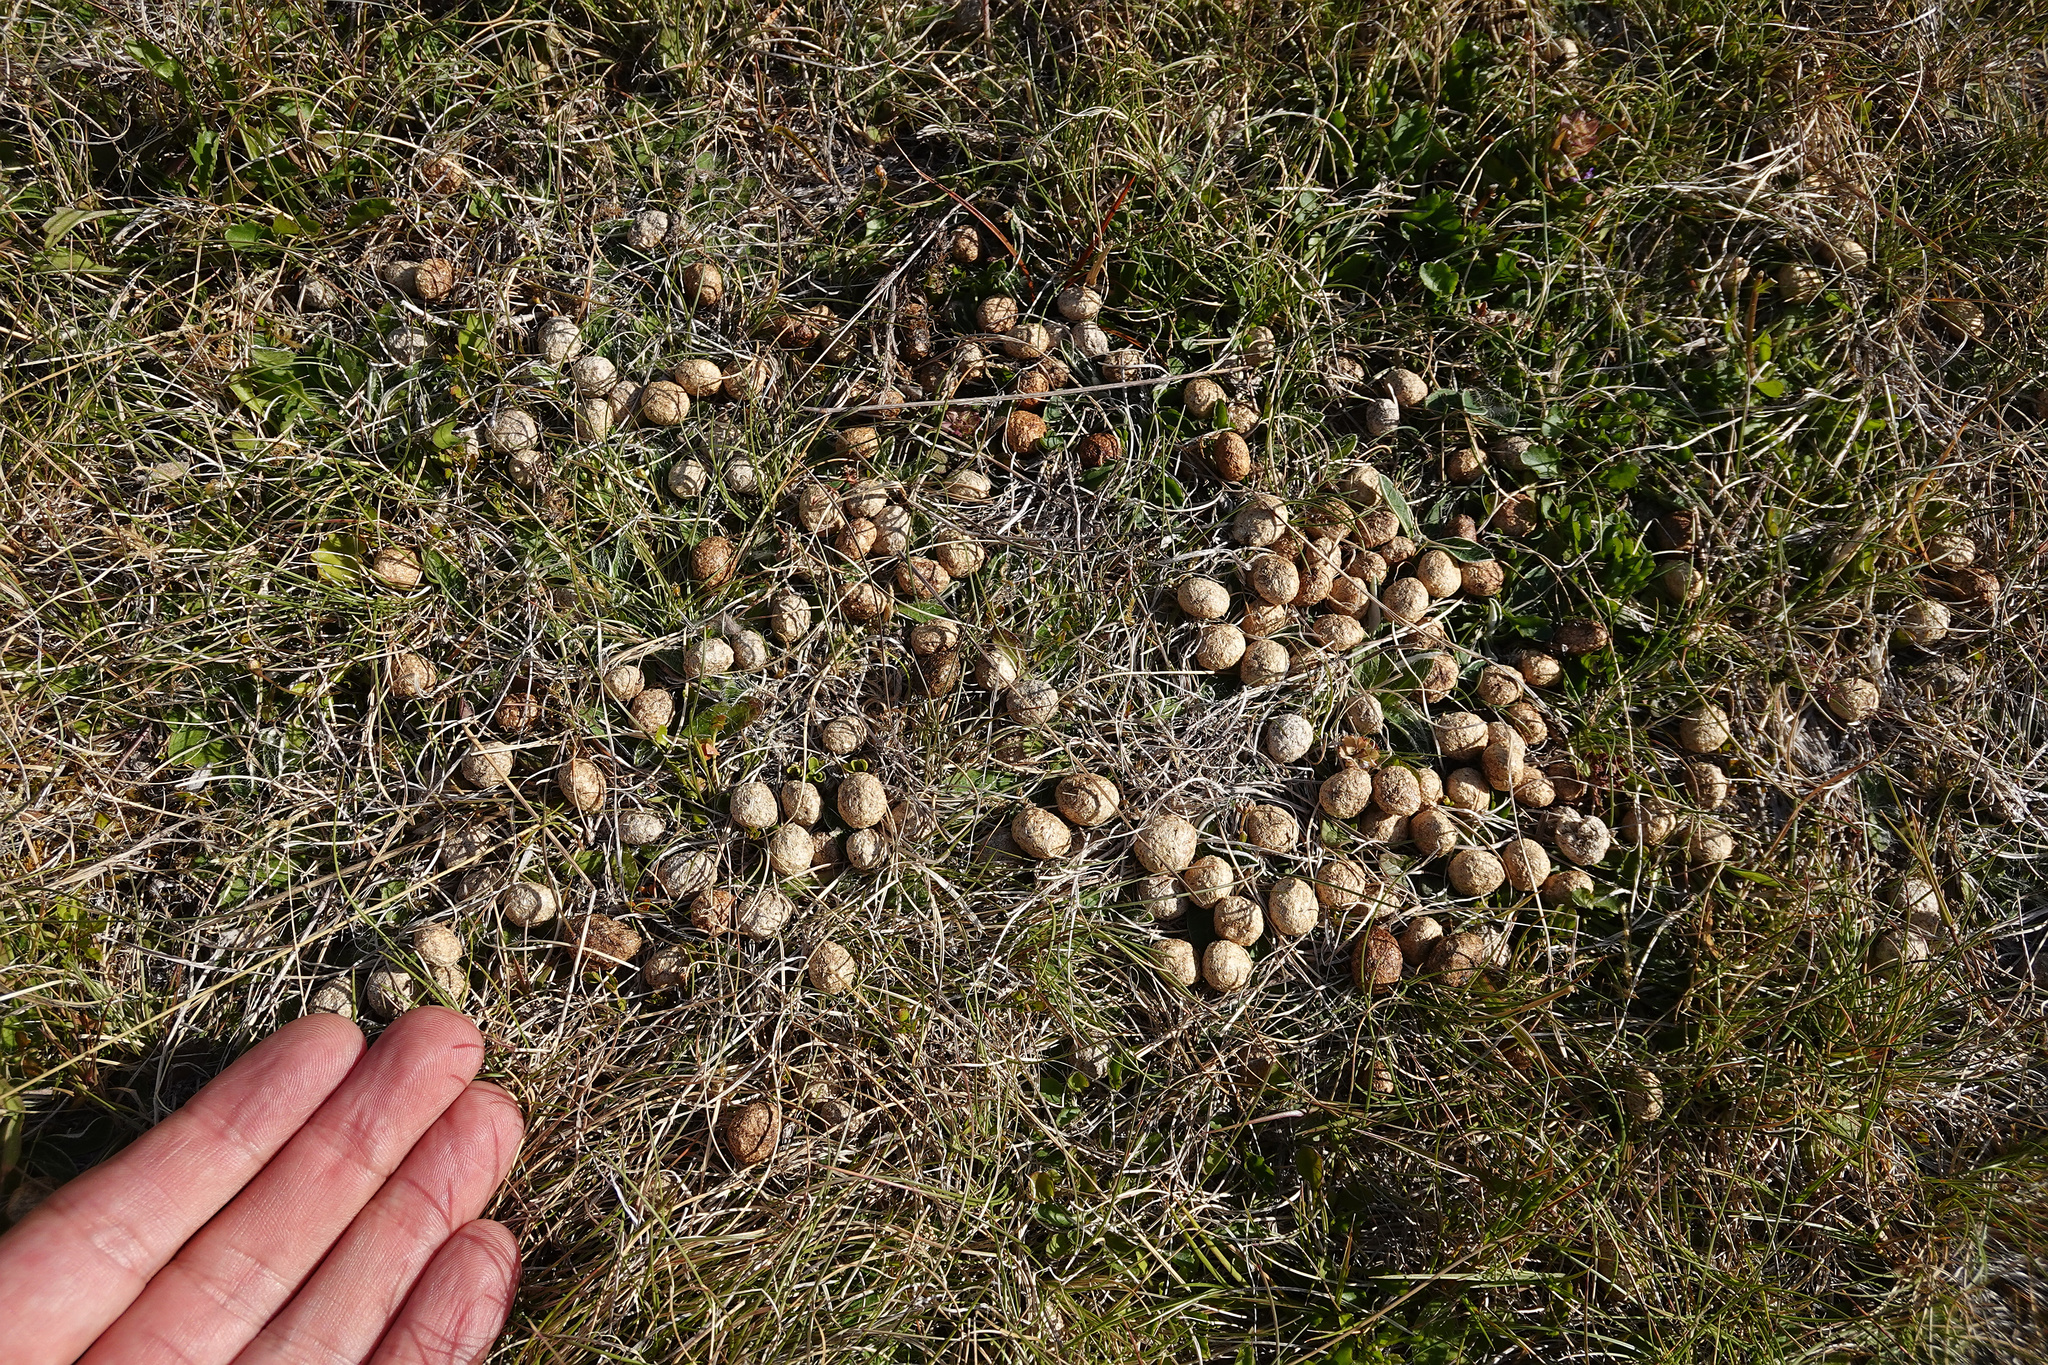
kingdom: Animalia
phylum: Chordata
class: Mammalia
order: Lagomorpha
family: Leporidae
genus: Oryctolagus
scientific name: Oryctolagus cuniculus
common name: European rabbit
